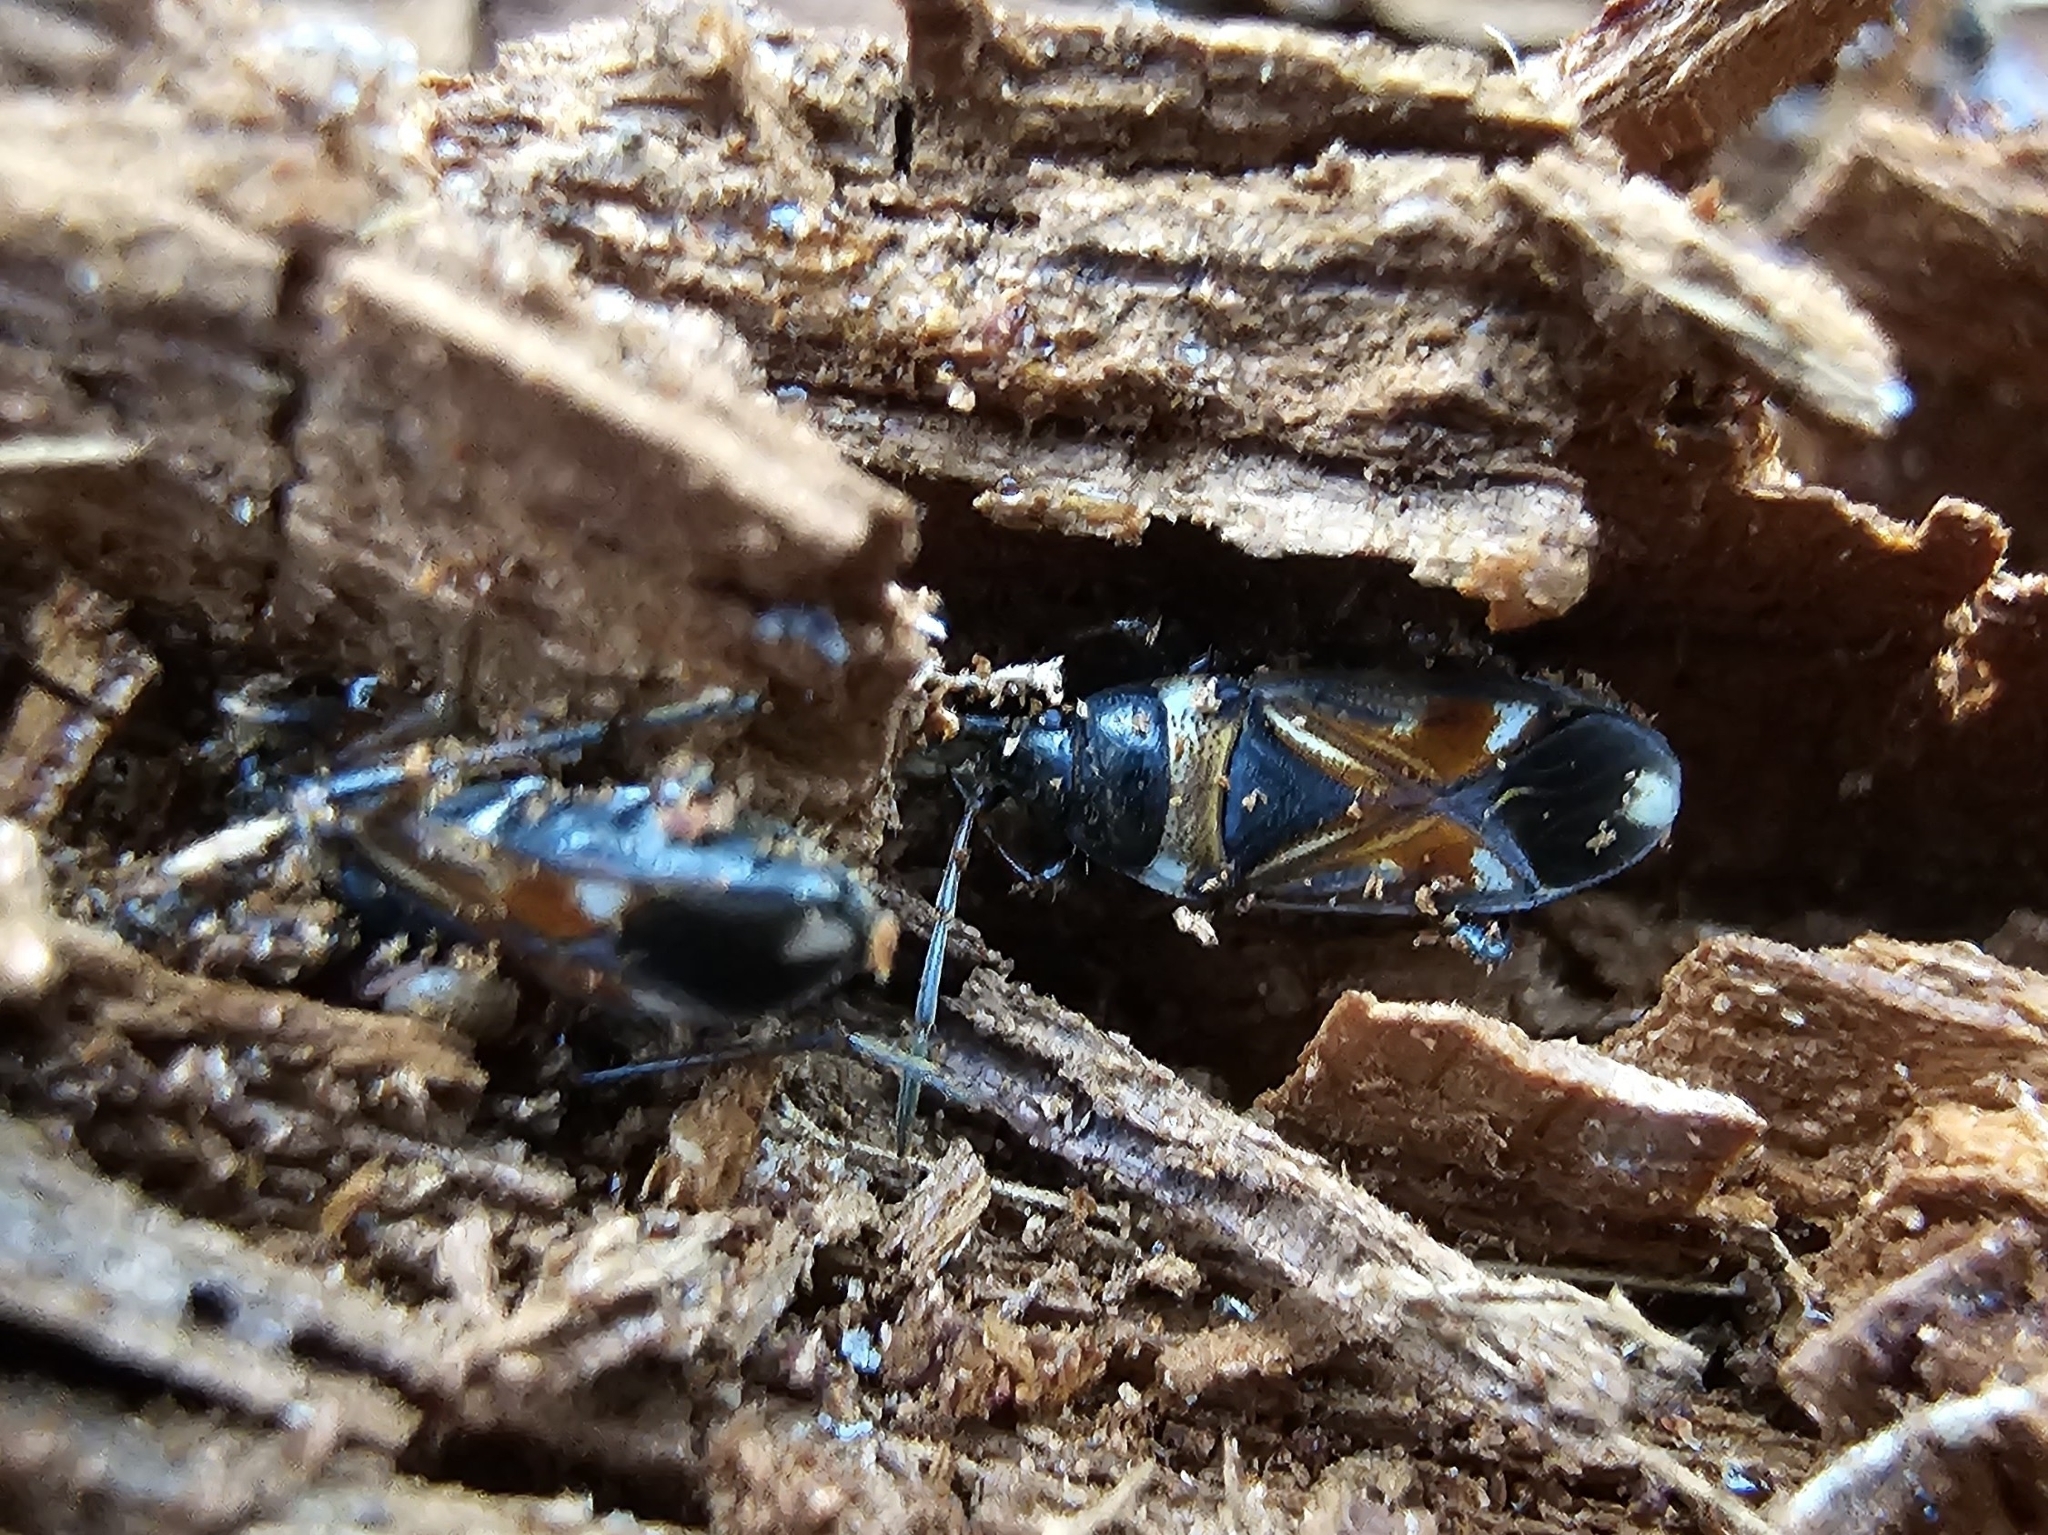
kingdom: Animalia
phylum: Arthropoda
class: Insecta
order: Hemiptera
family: Rhyparochromidae
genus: Raglius
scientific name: Raglius alboacuminatus
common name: Dirt-colored seed bug
